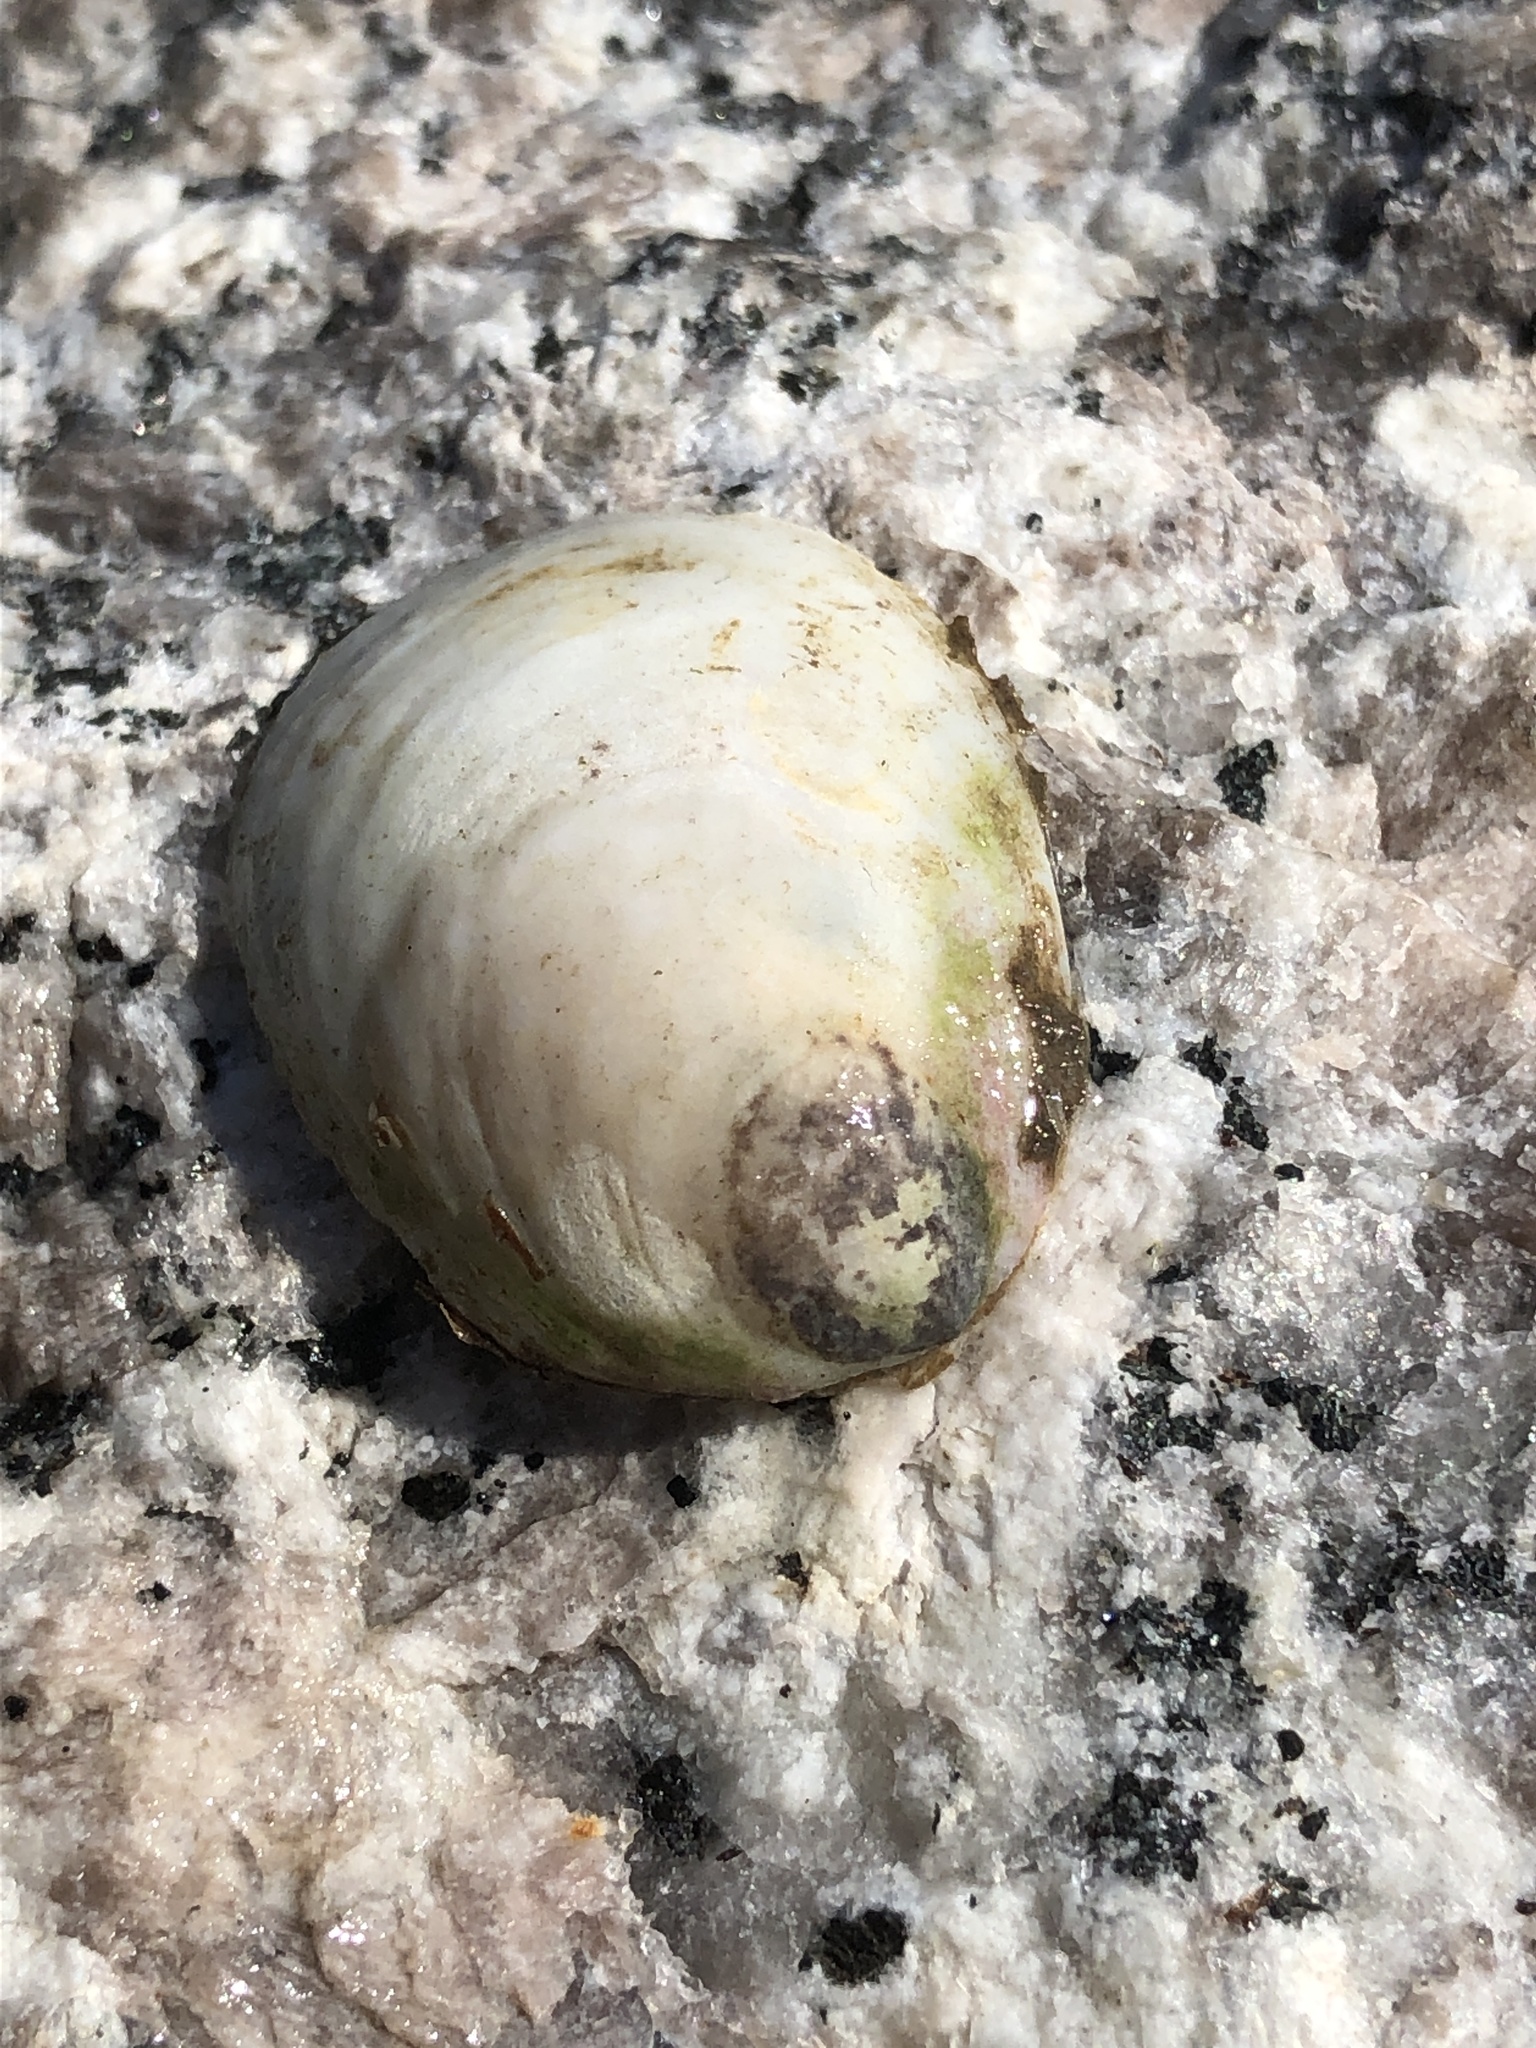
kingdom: Animalia
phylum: Mollusca
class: Gastropoda
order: Littorinimorpha
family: Calyptraeidae
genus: Crepidula
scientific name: Crepidula fornicata
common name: Slipper limpet
